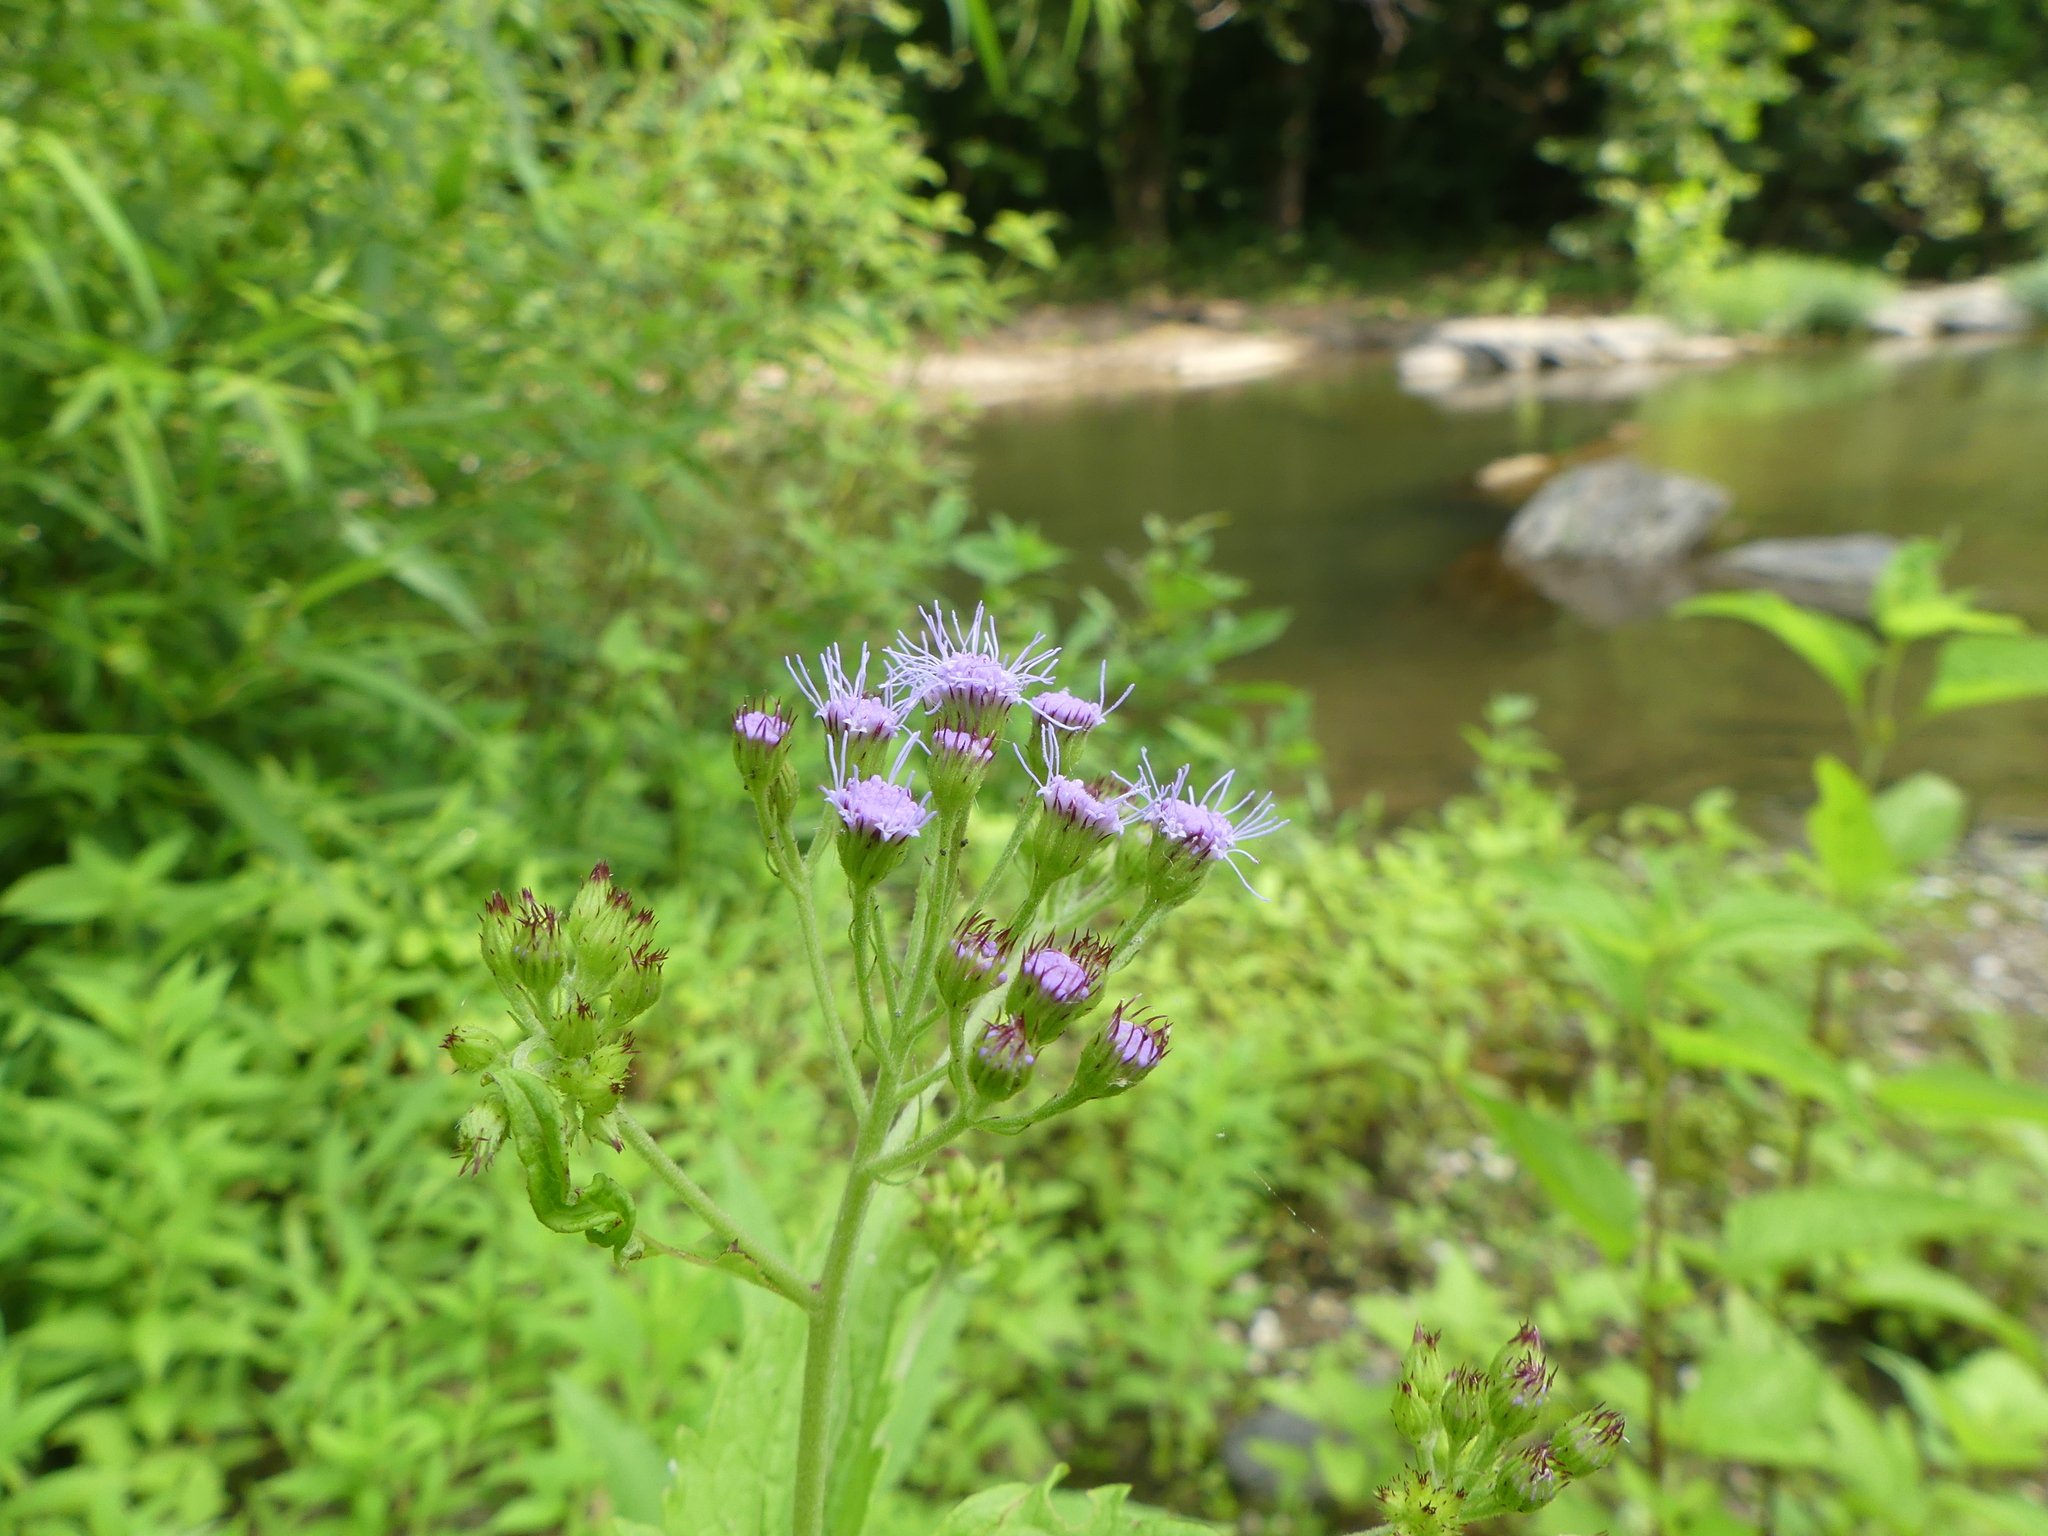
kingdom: Plantae
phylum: Tracheophyta
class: Magnoliopsida
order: Asterales
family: Asteraceae
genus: Conoclinium
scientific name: Conoclinium coelestinum
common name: Blue mistflower
